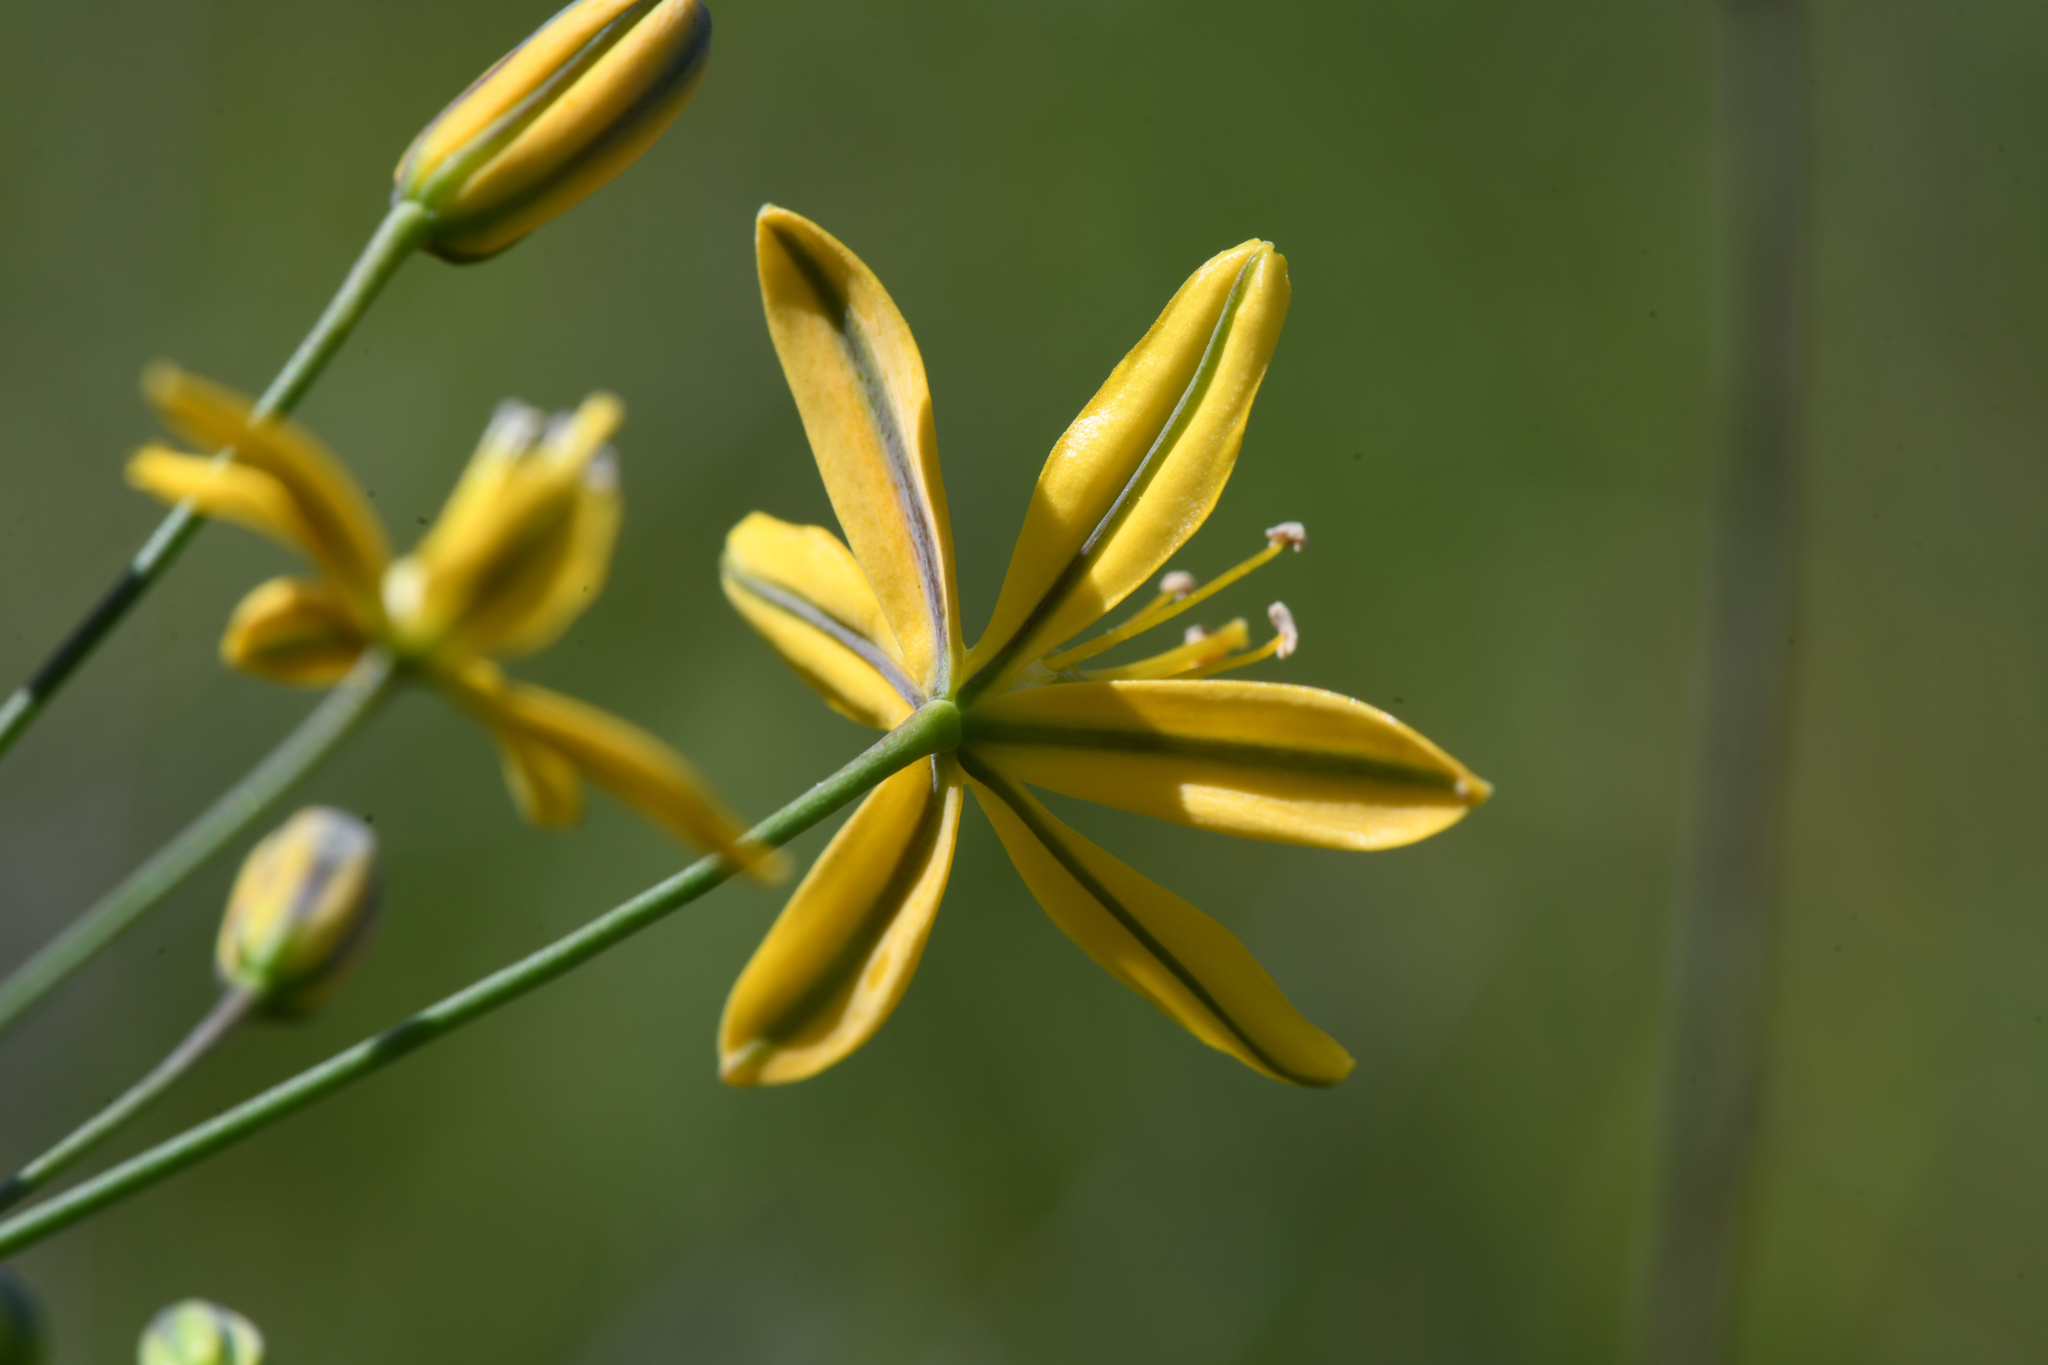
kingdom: Plantae
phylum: Tracheophyta
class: Liliopsida
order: Asparagales
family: Asparagaceae
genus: Bloomeria
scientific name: Bloomeria crocea
